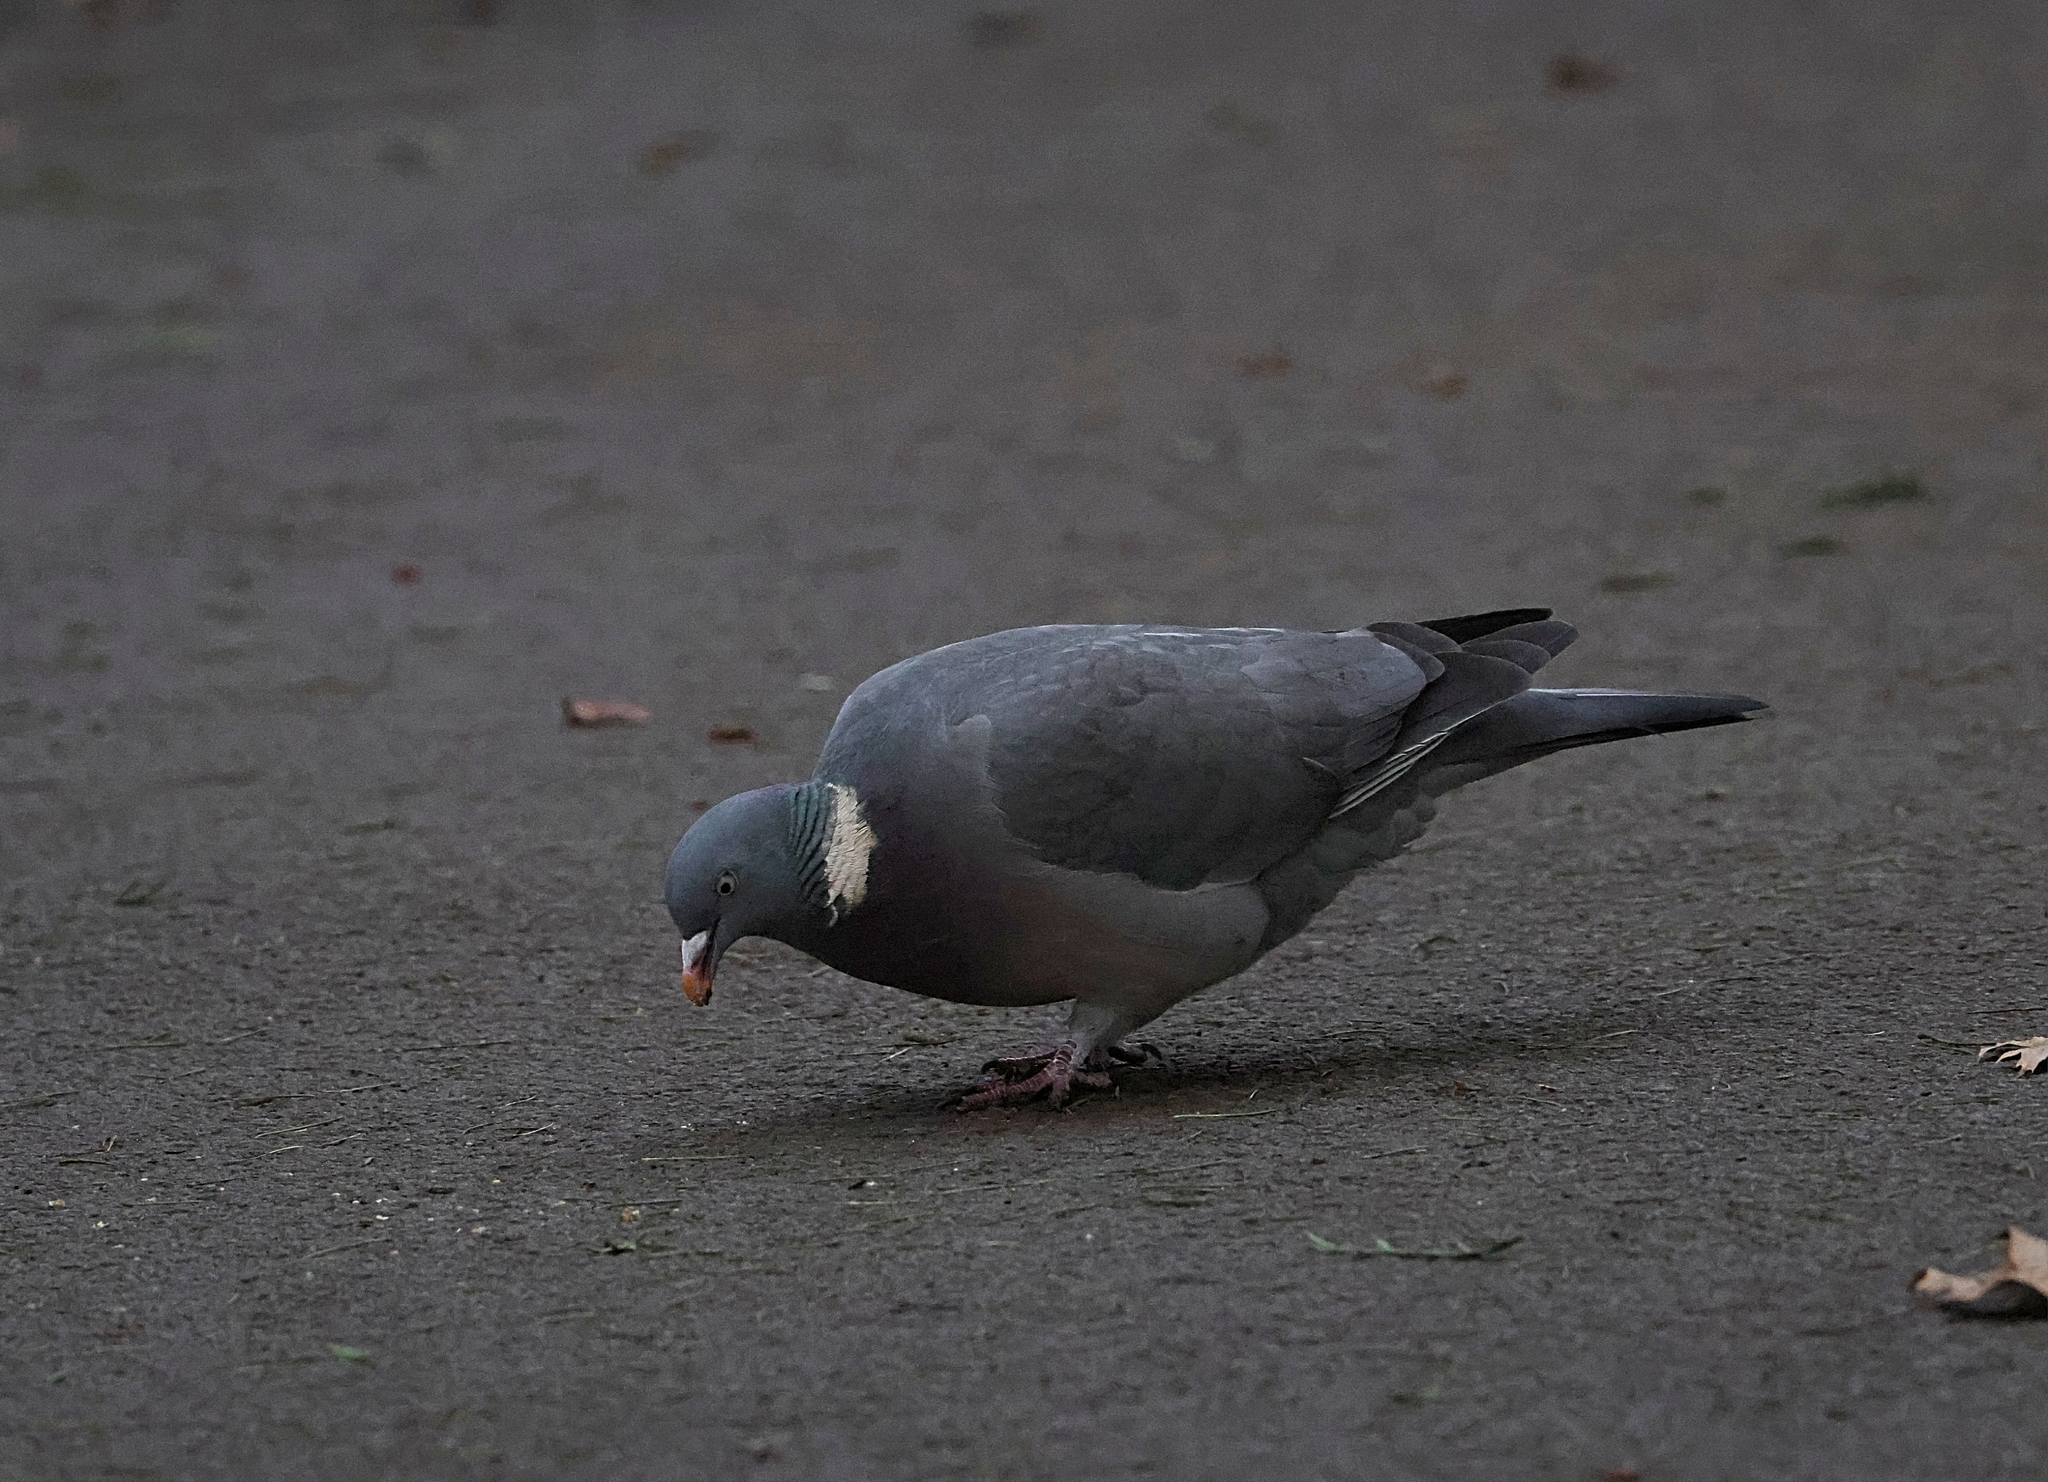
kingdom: Animalia
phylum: Chordata
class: Aves
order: Columbiformes
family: Columbidae
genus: Columba
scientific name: Columba palumbus
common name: Common wood pigeon
